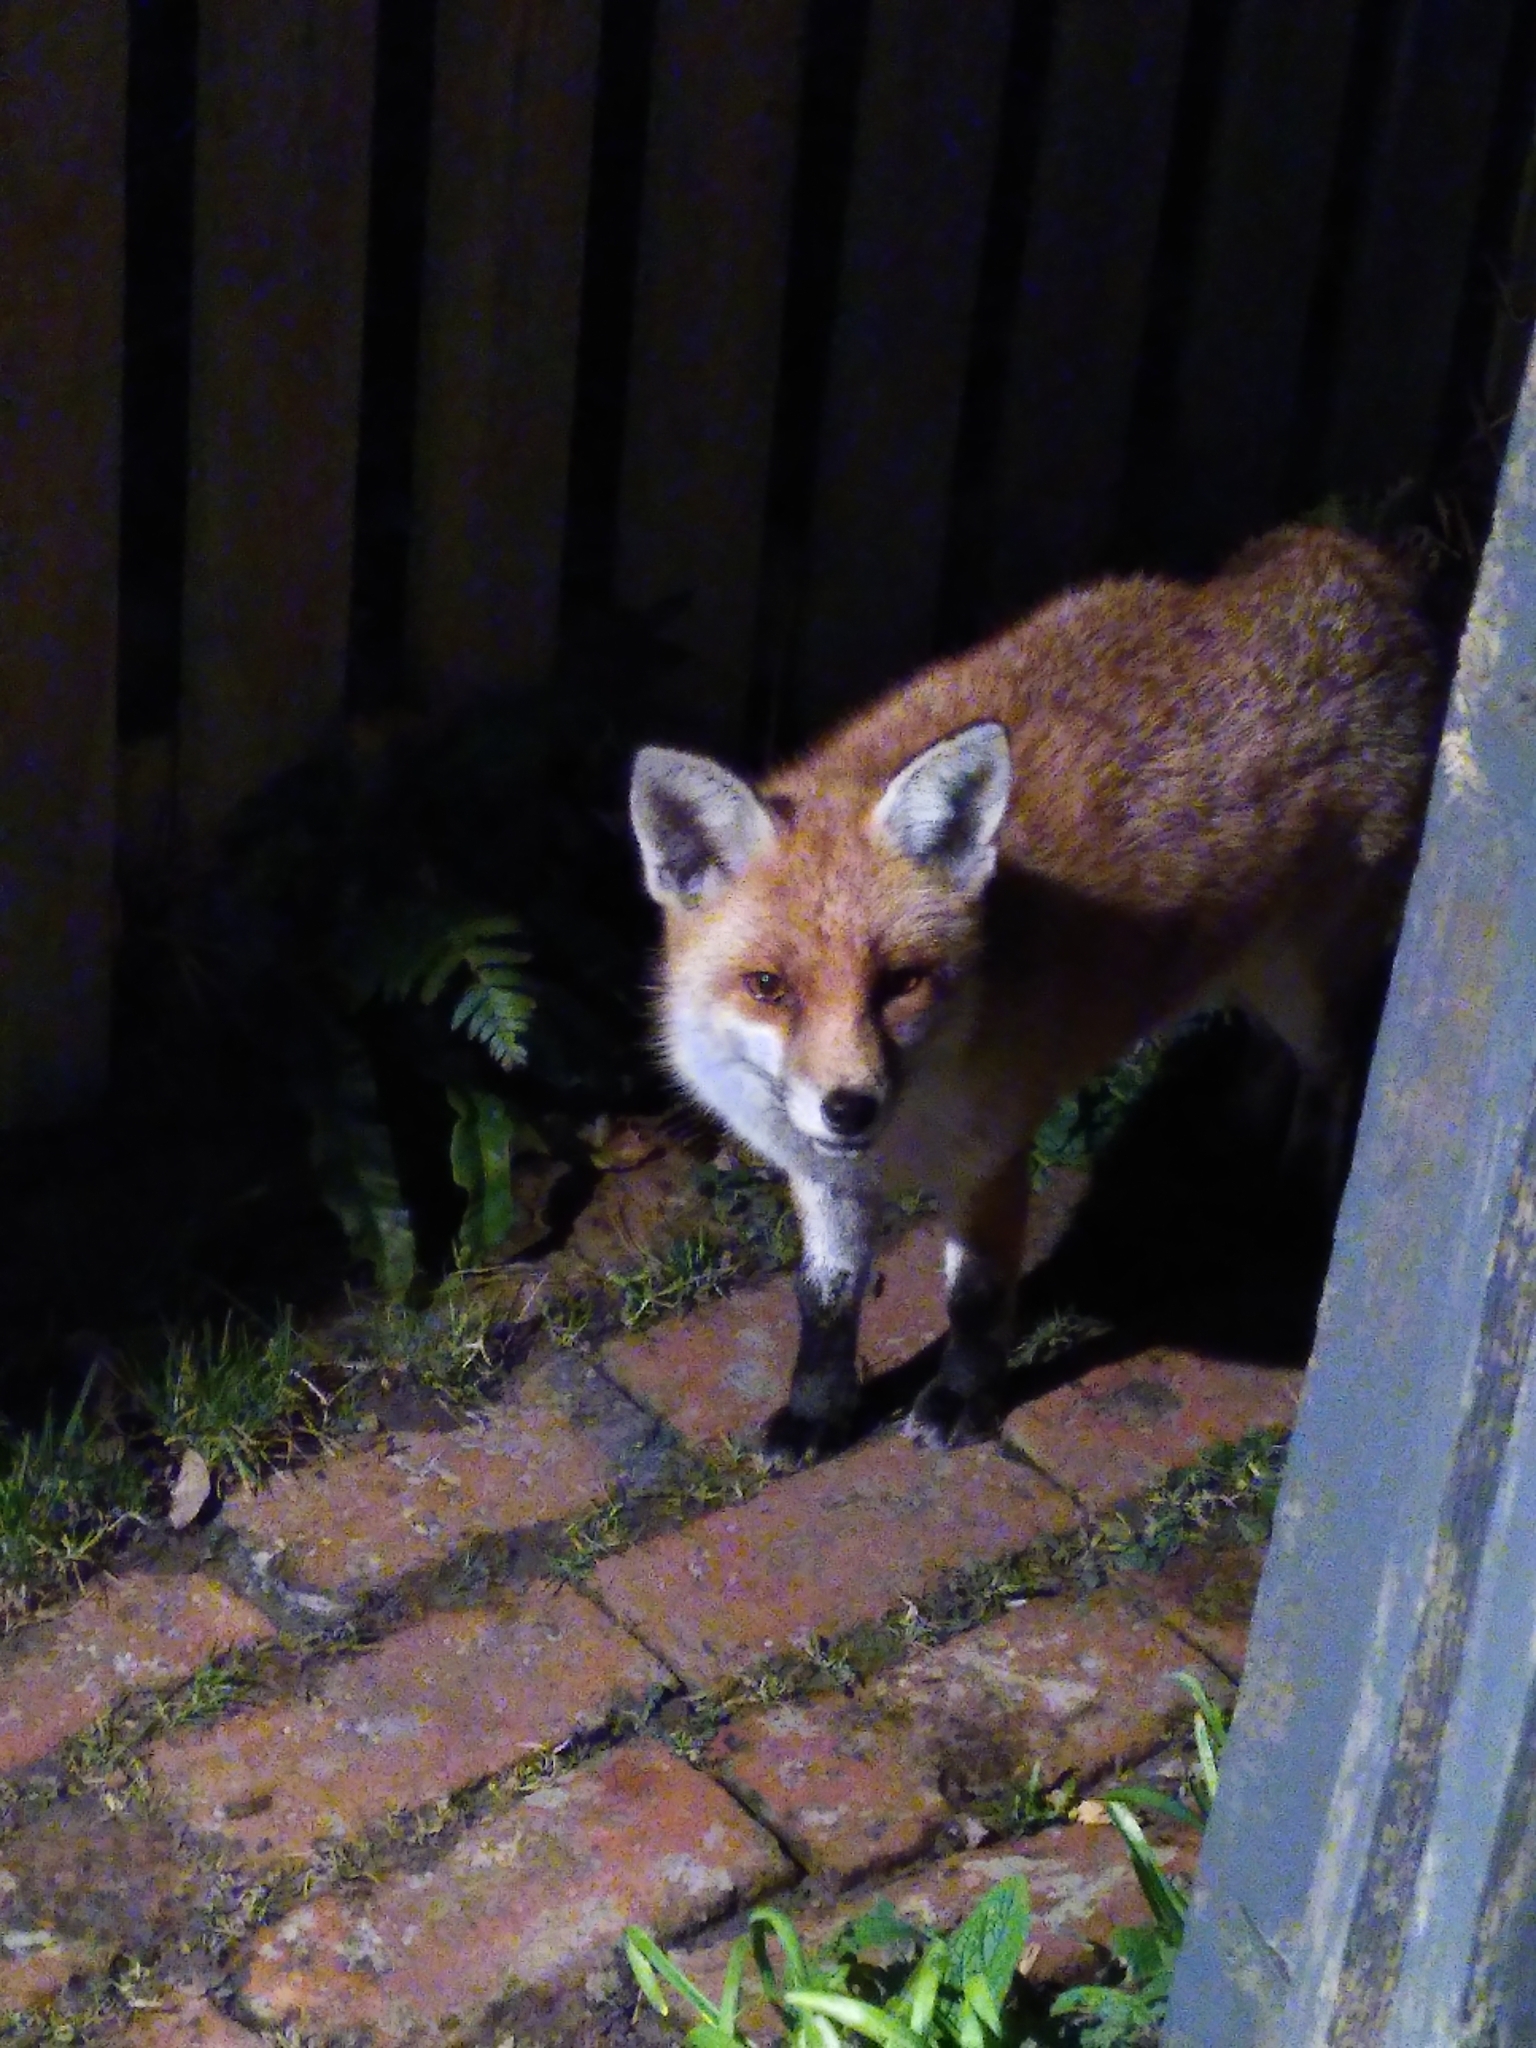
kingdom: Animalia
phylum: Chordata
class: Mammalia
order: Carnivora
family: Canidae
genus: Vulpes
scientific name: Vulpes vulpes
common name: Red fox
